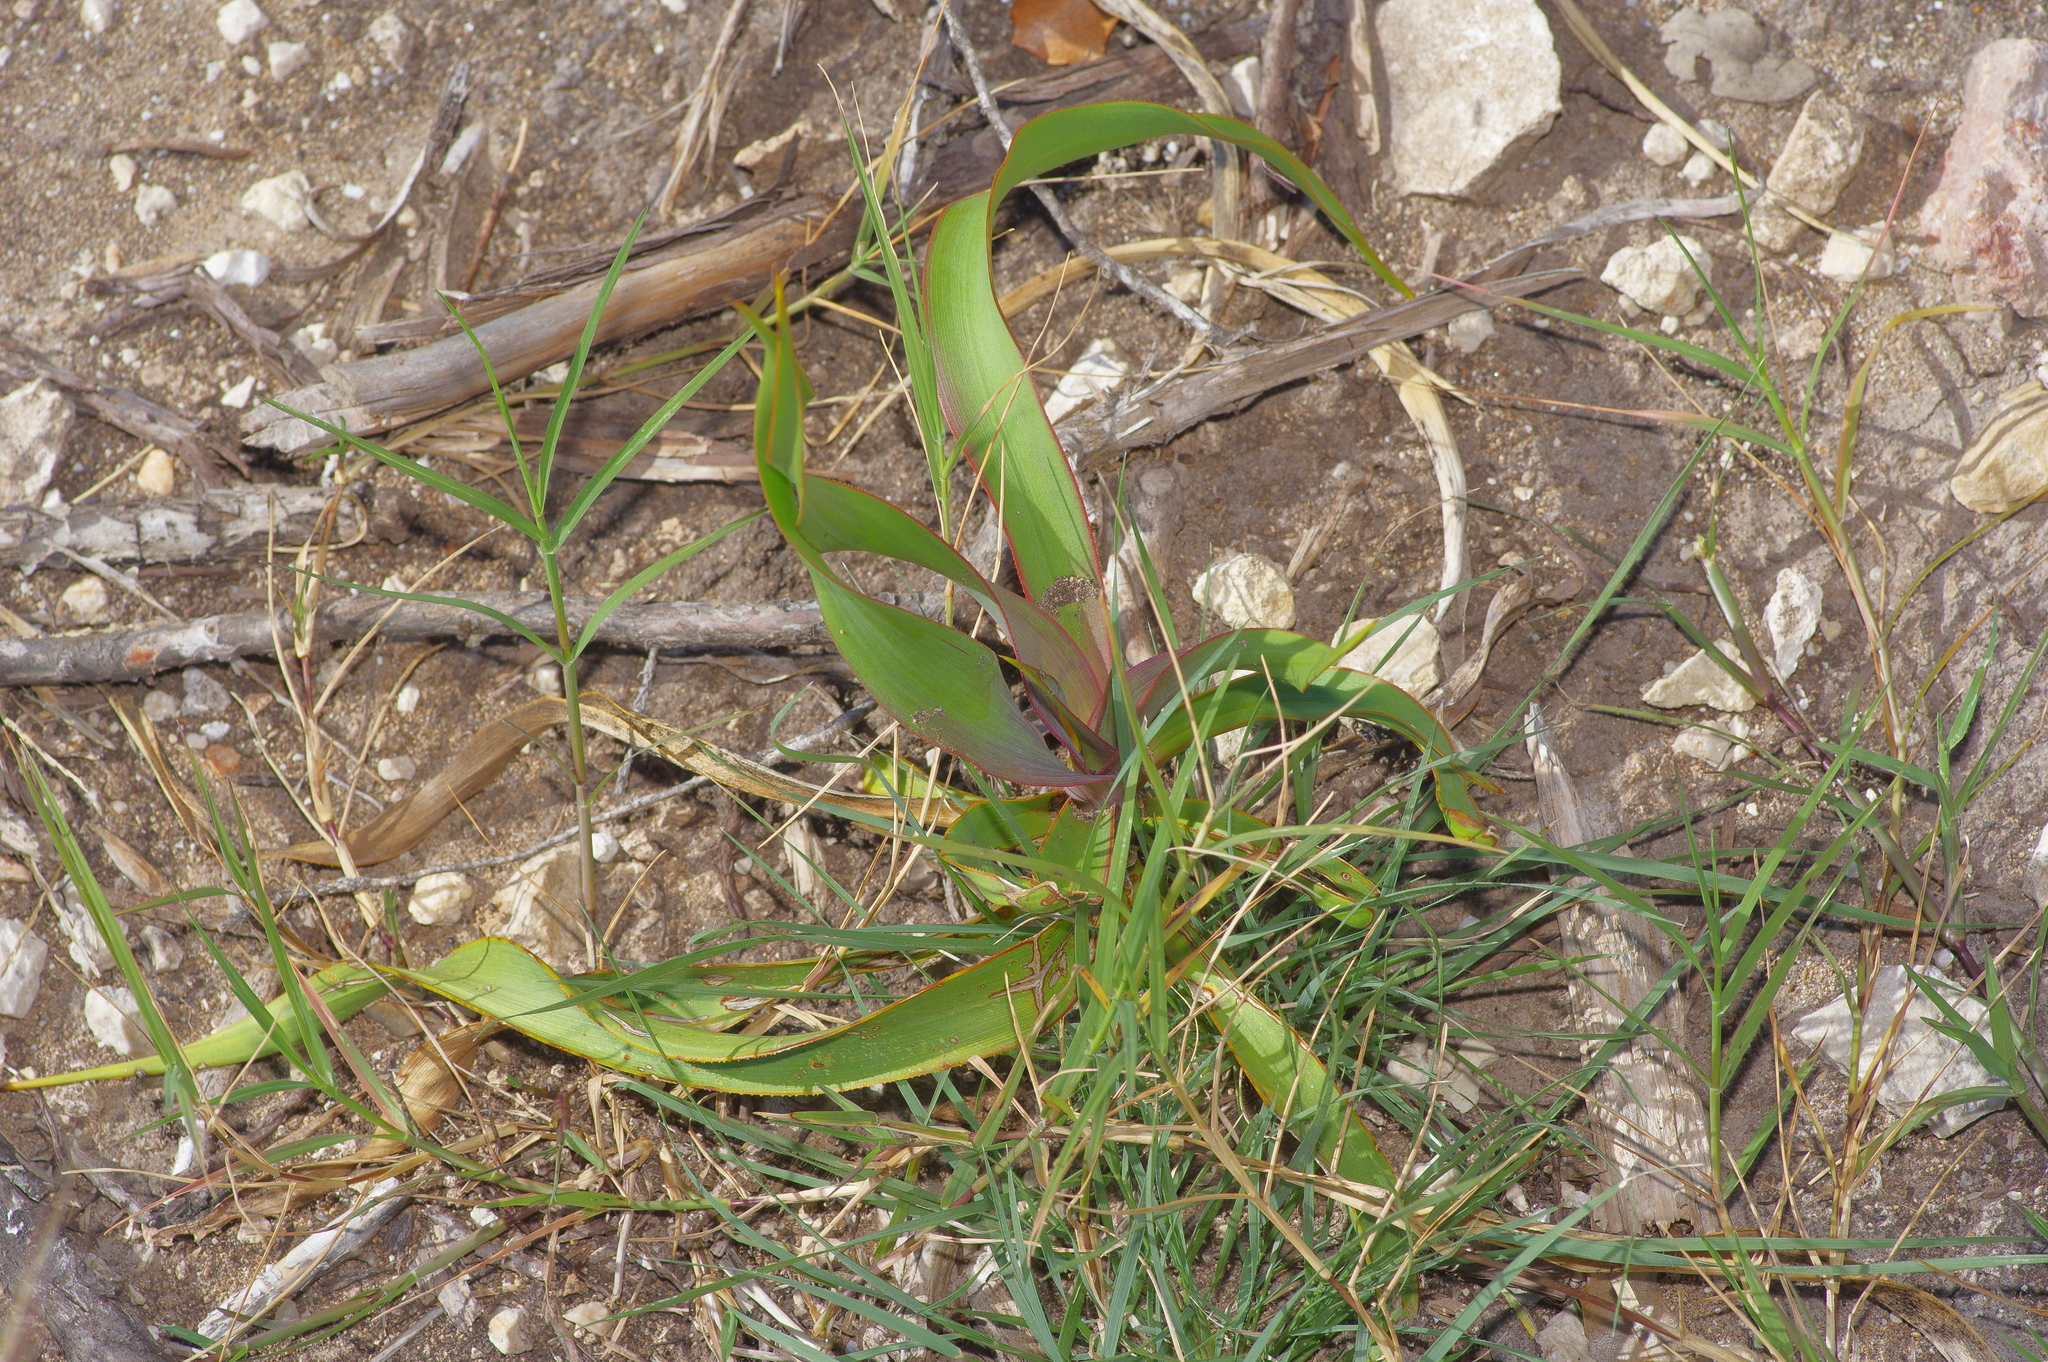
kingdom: Plantae
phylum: Tracheophyta
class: Liliopsida
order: Asparagales
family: Asparagaceae
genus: Yucca
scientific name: Yucca rupicola
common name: Twisted-leaf spanish-dagger
